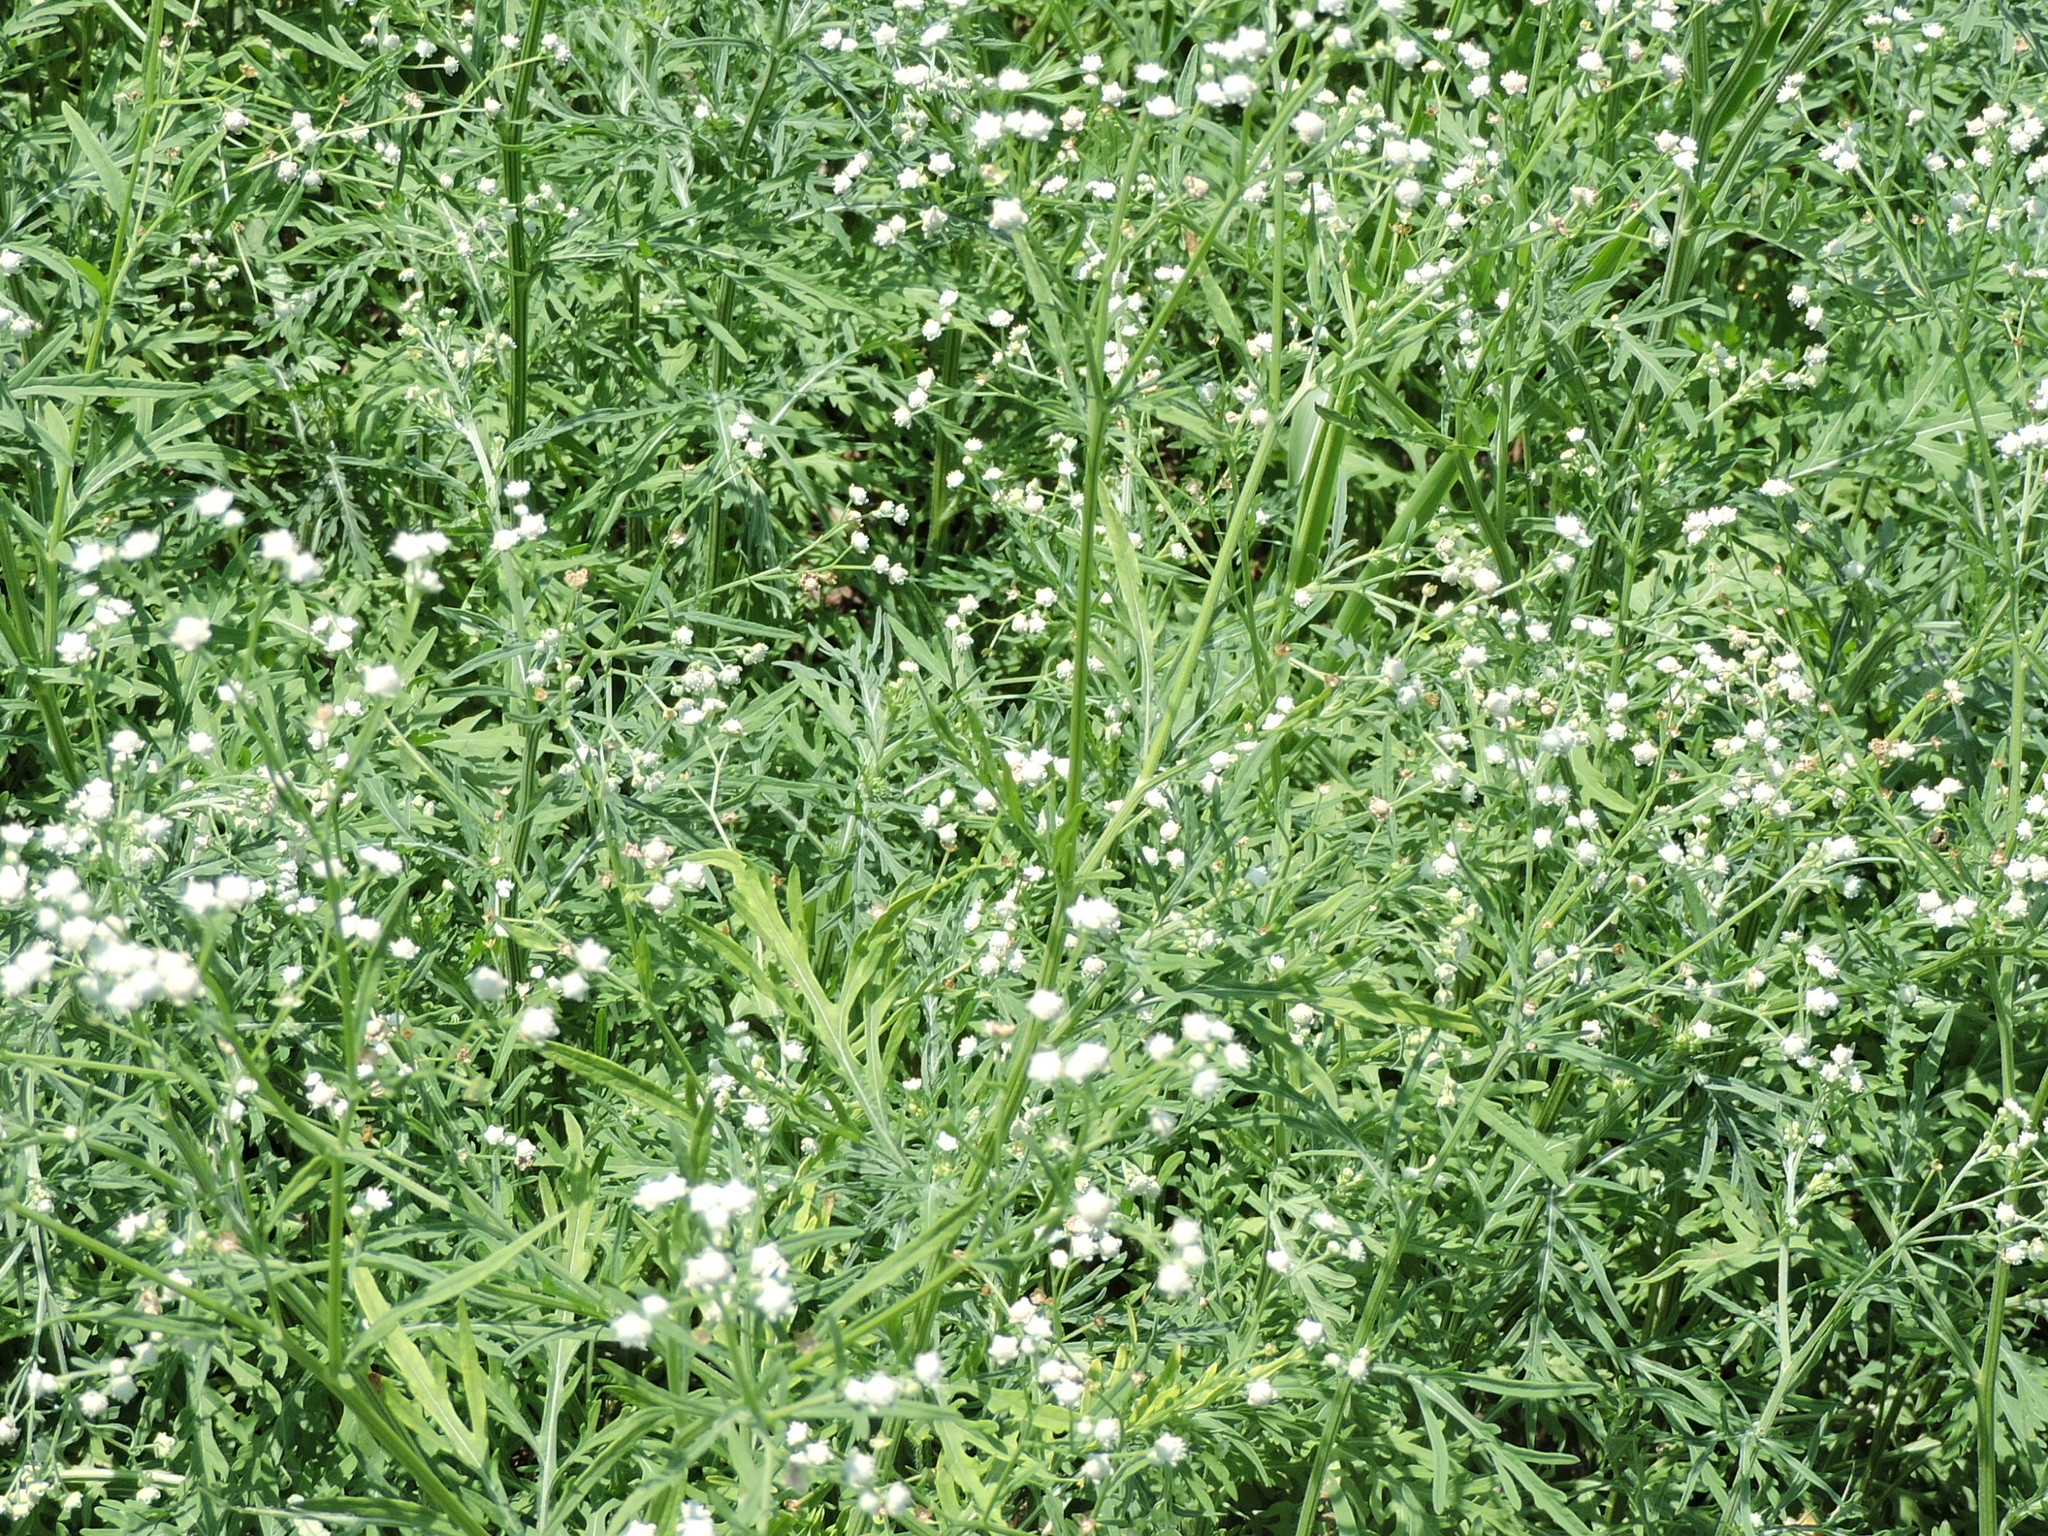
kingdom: Plantae
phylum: Tracheophyta
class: Magnoliopsida
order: Asterales
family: Asteraceae
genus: Parthenium
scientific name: Parthenium hysterophorus
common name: Santa maria feverfew
